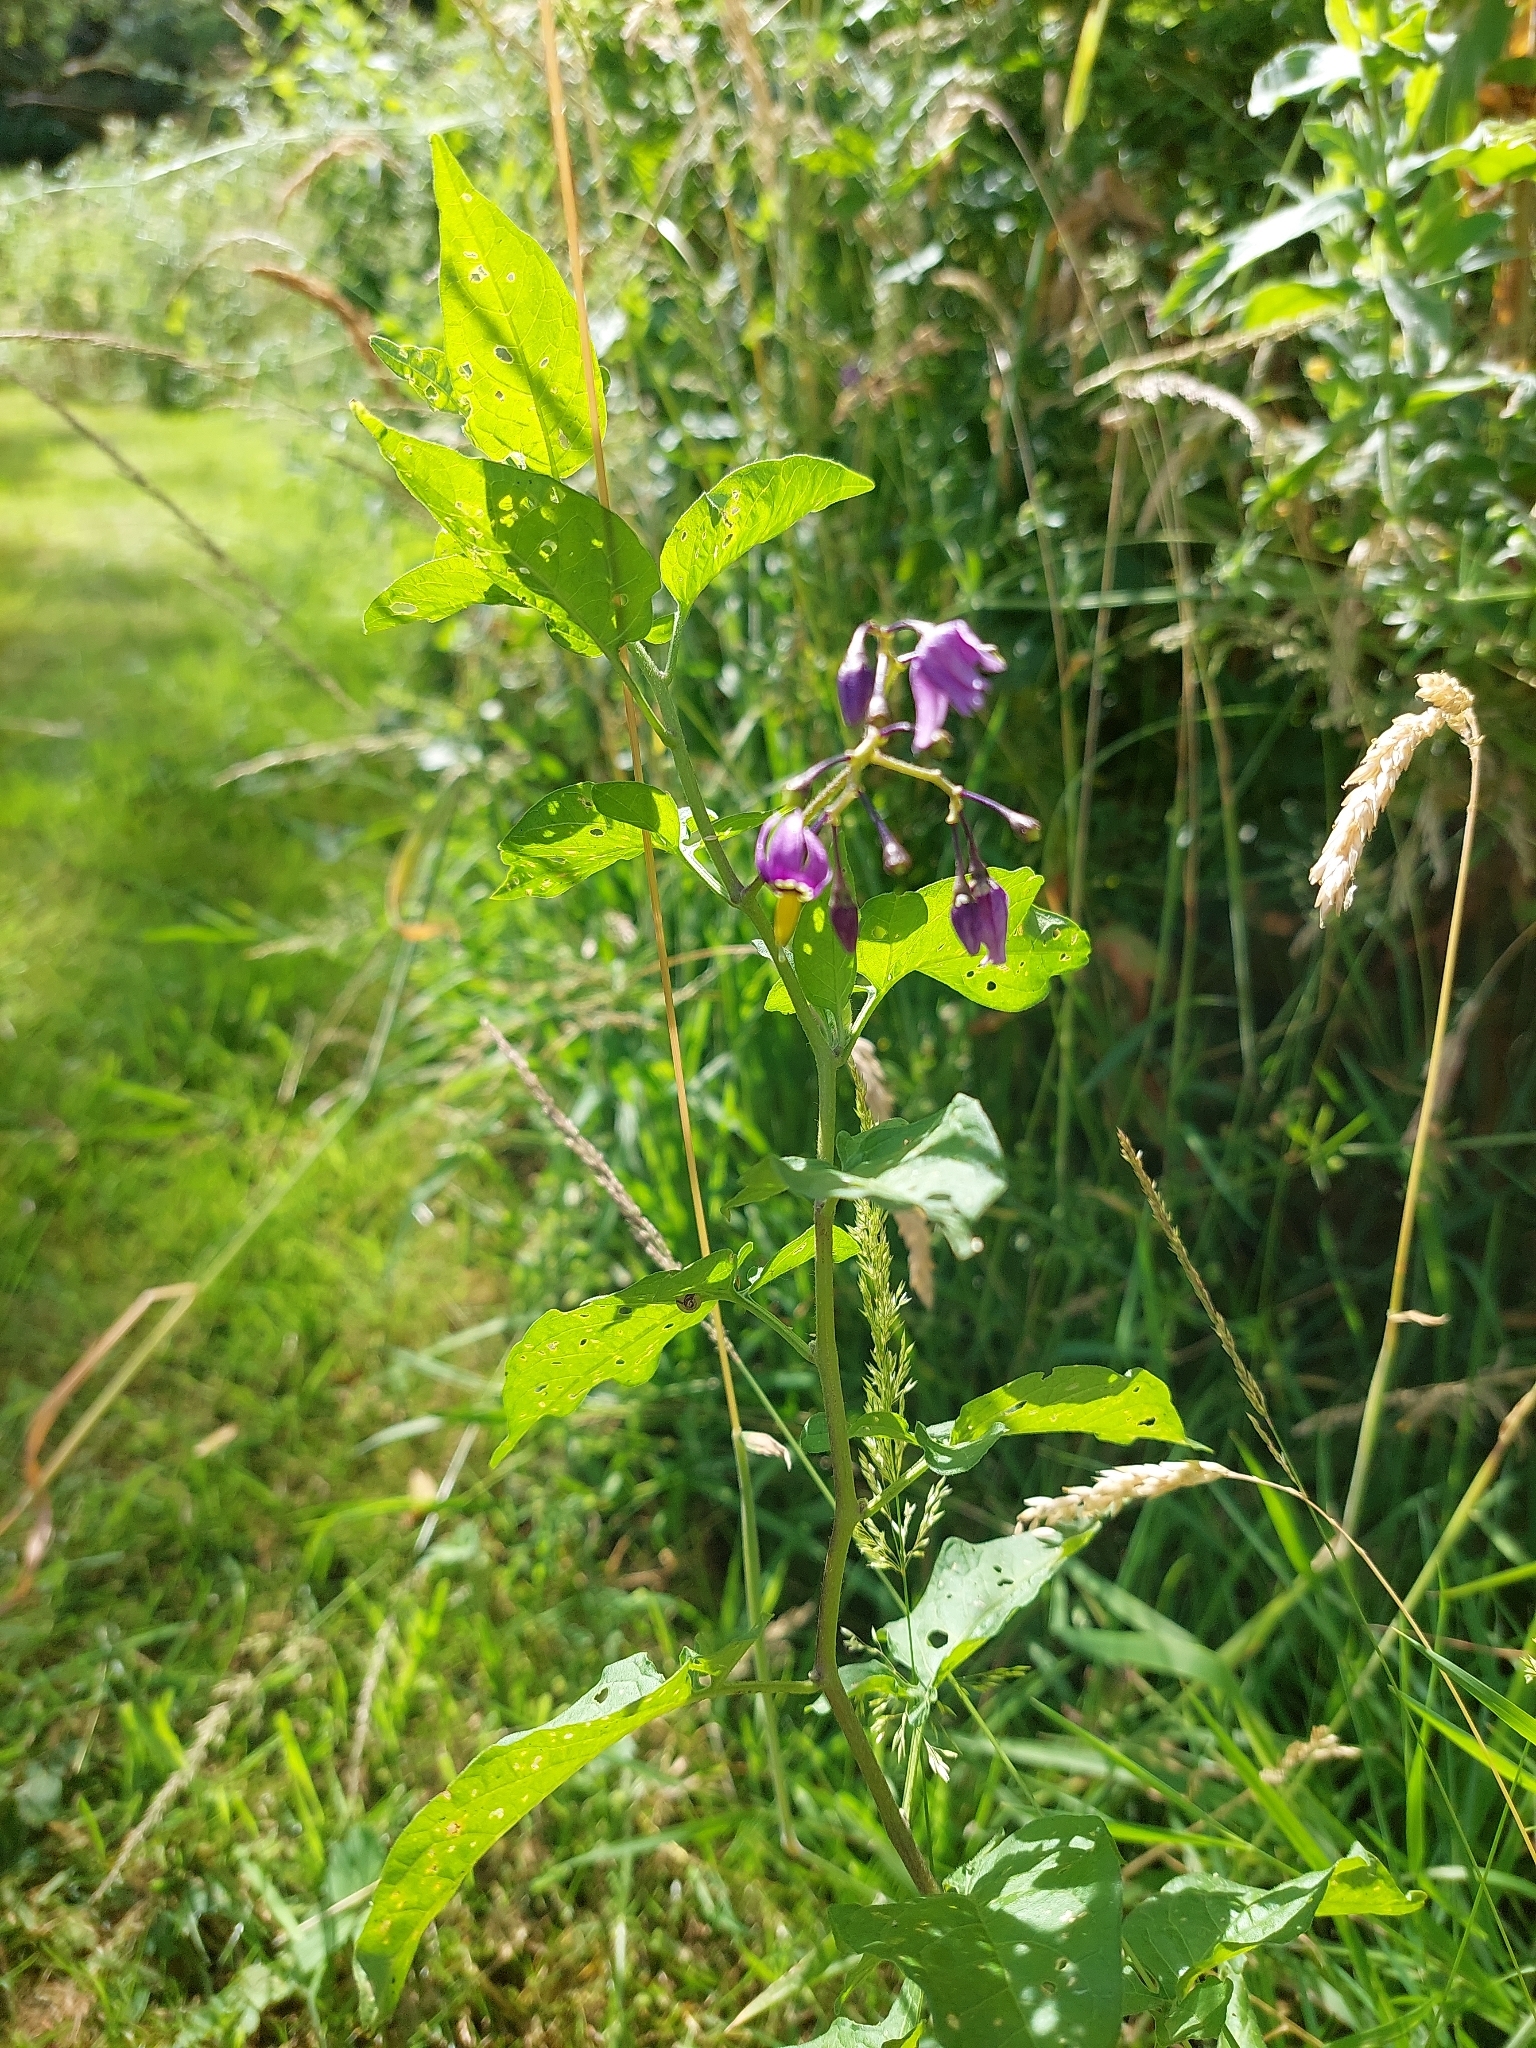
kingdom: Plantae
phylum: Tracheophyta
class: Magnoliopsida
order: Solanales
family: Solanaceae
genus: Solanum
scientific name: Solanum dulcamara
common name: Climbing nightshade
